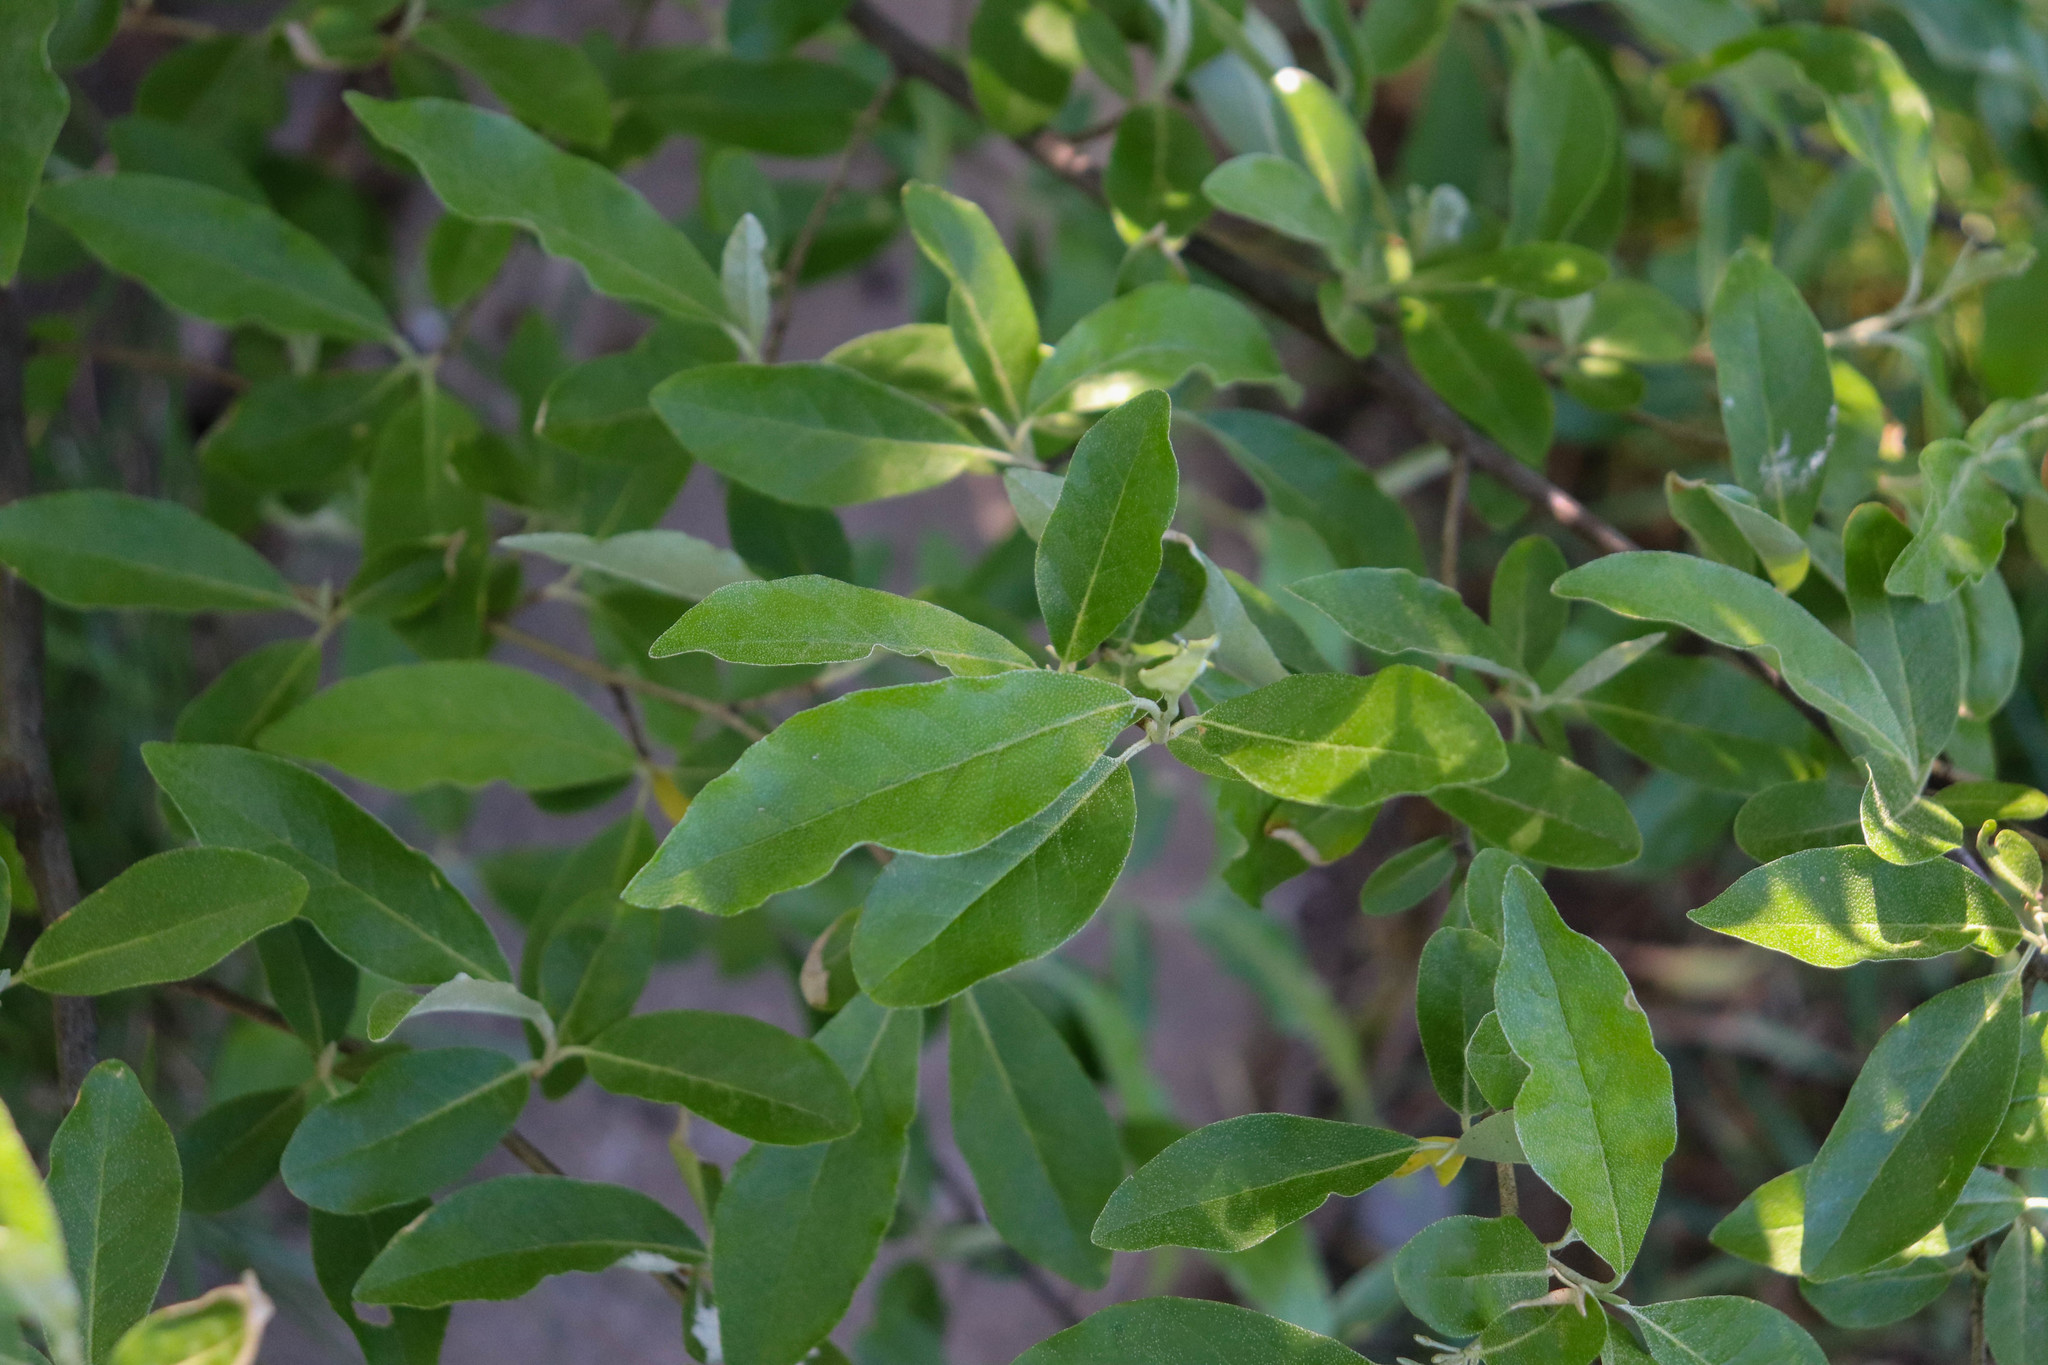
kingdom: Plantae
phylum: Tracheophyta
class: Magnoliopsida
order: Rosales
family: Elaeagnaceae
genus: Elaeagnus
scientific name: Elaeagnus umbellata
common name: Autumn olive
